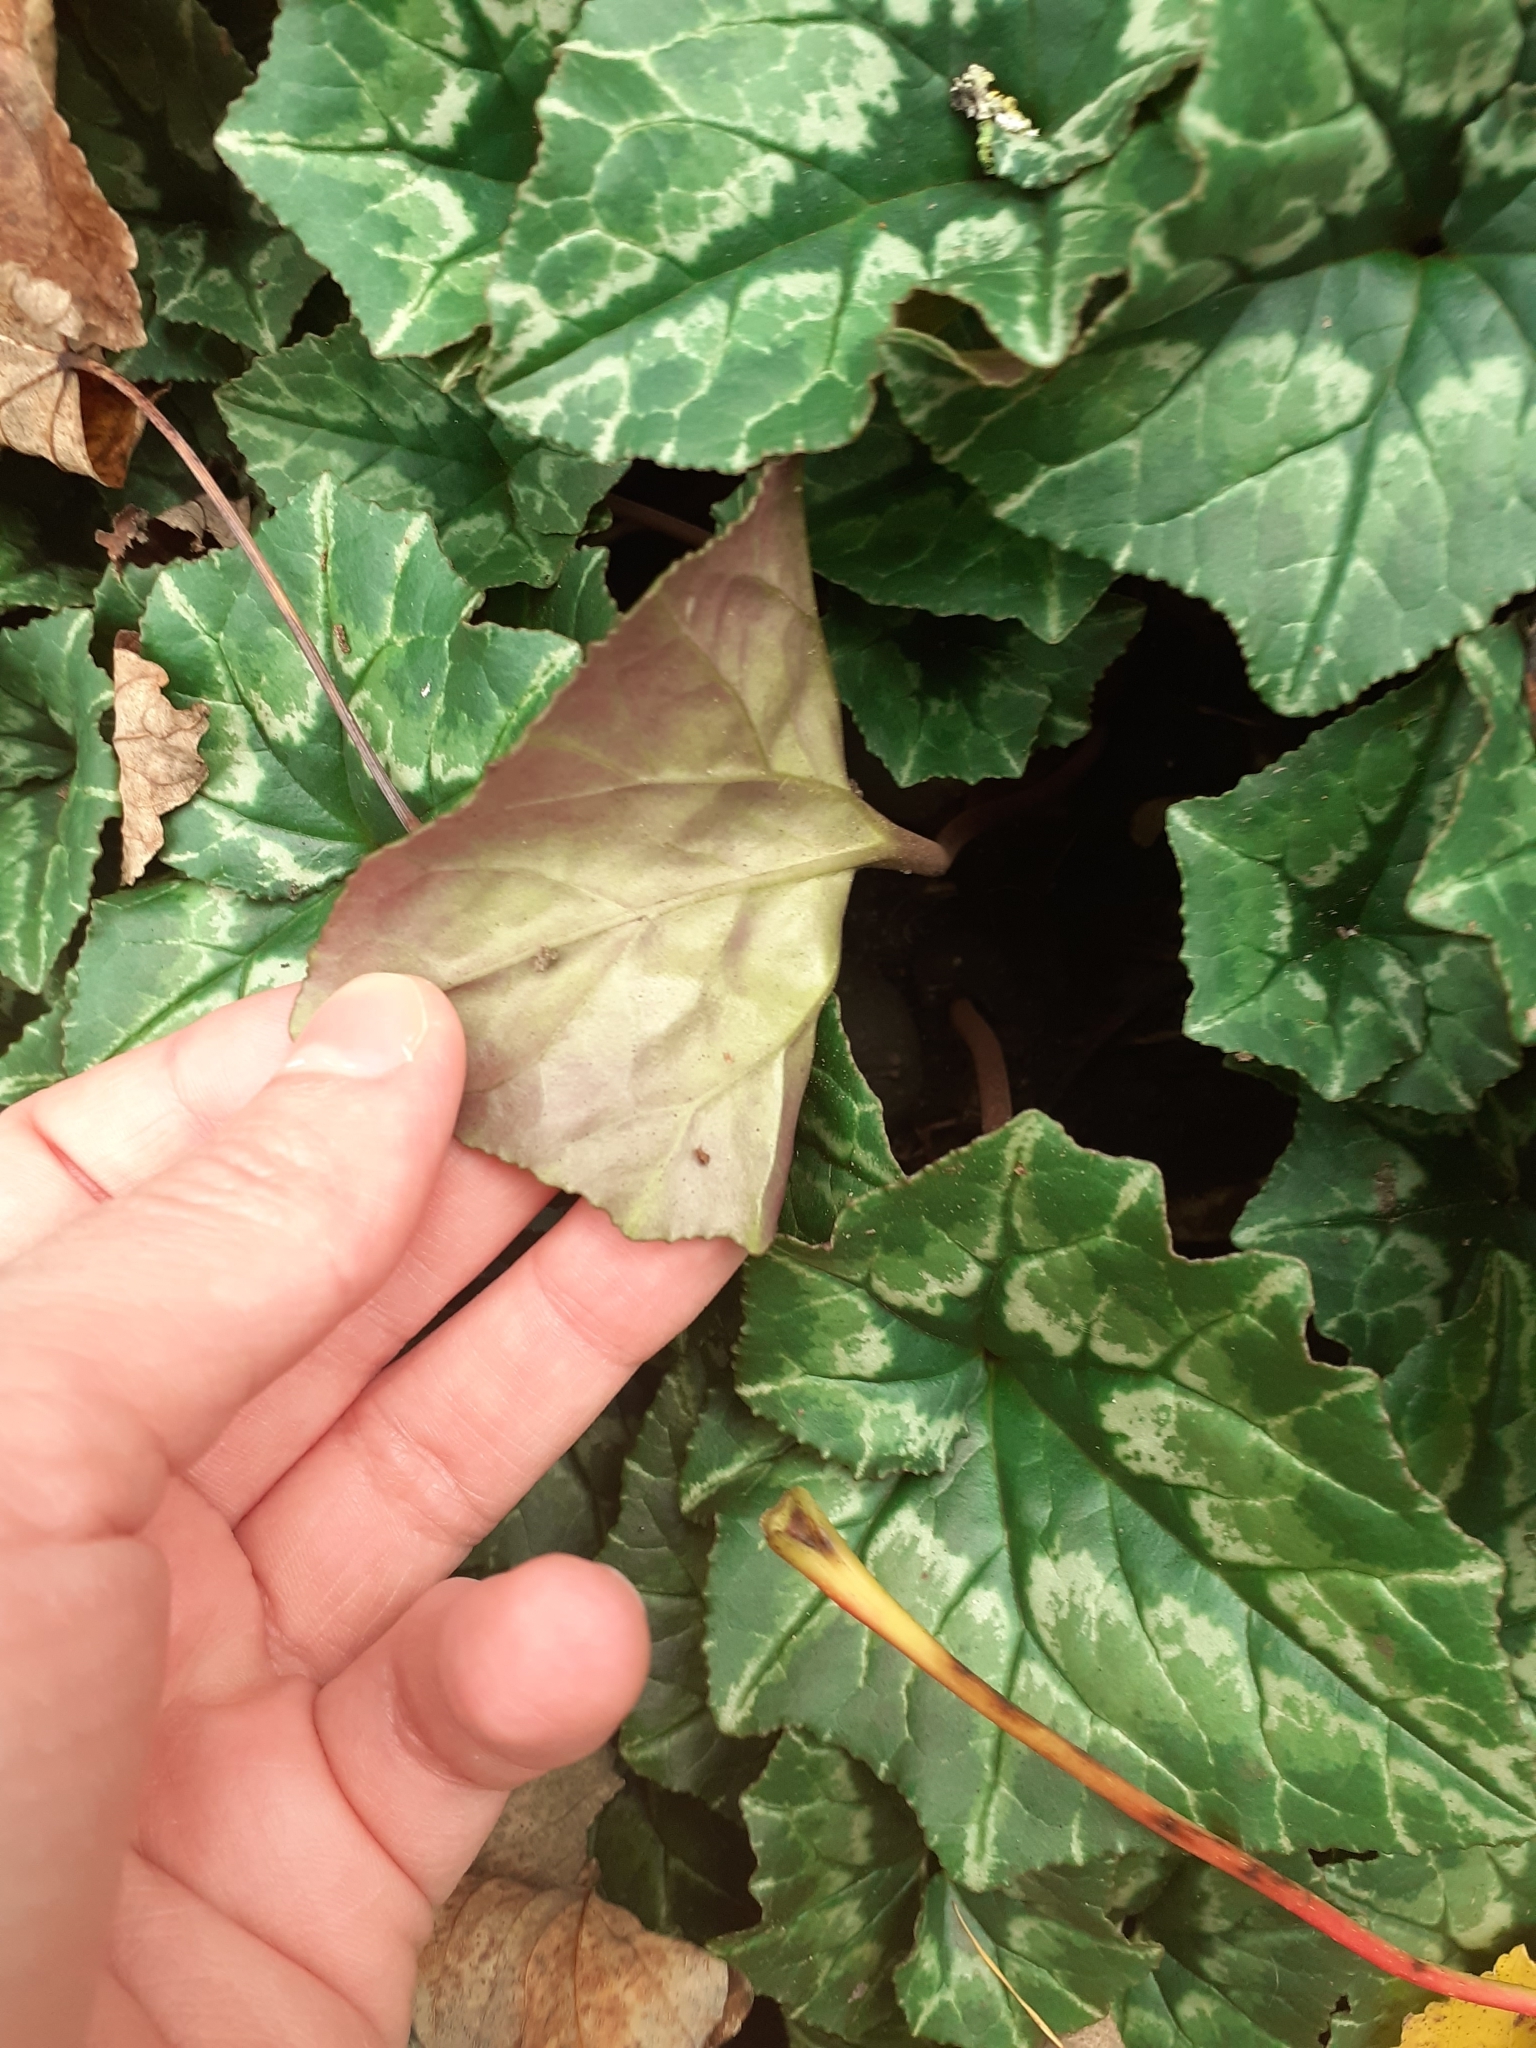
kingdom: Plantae
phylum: Tracheophyta
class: Magnoliopsida
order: Ericales
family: Primulaceae
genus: Cyclamen
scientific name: Cyclamen hederifolium
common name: Sowbread
